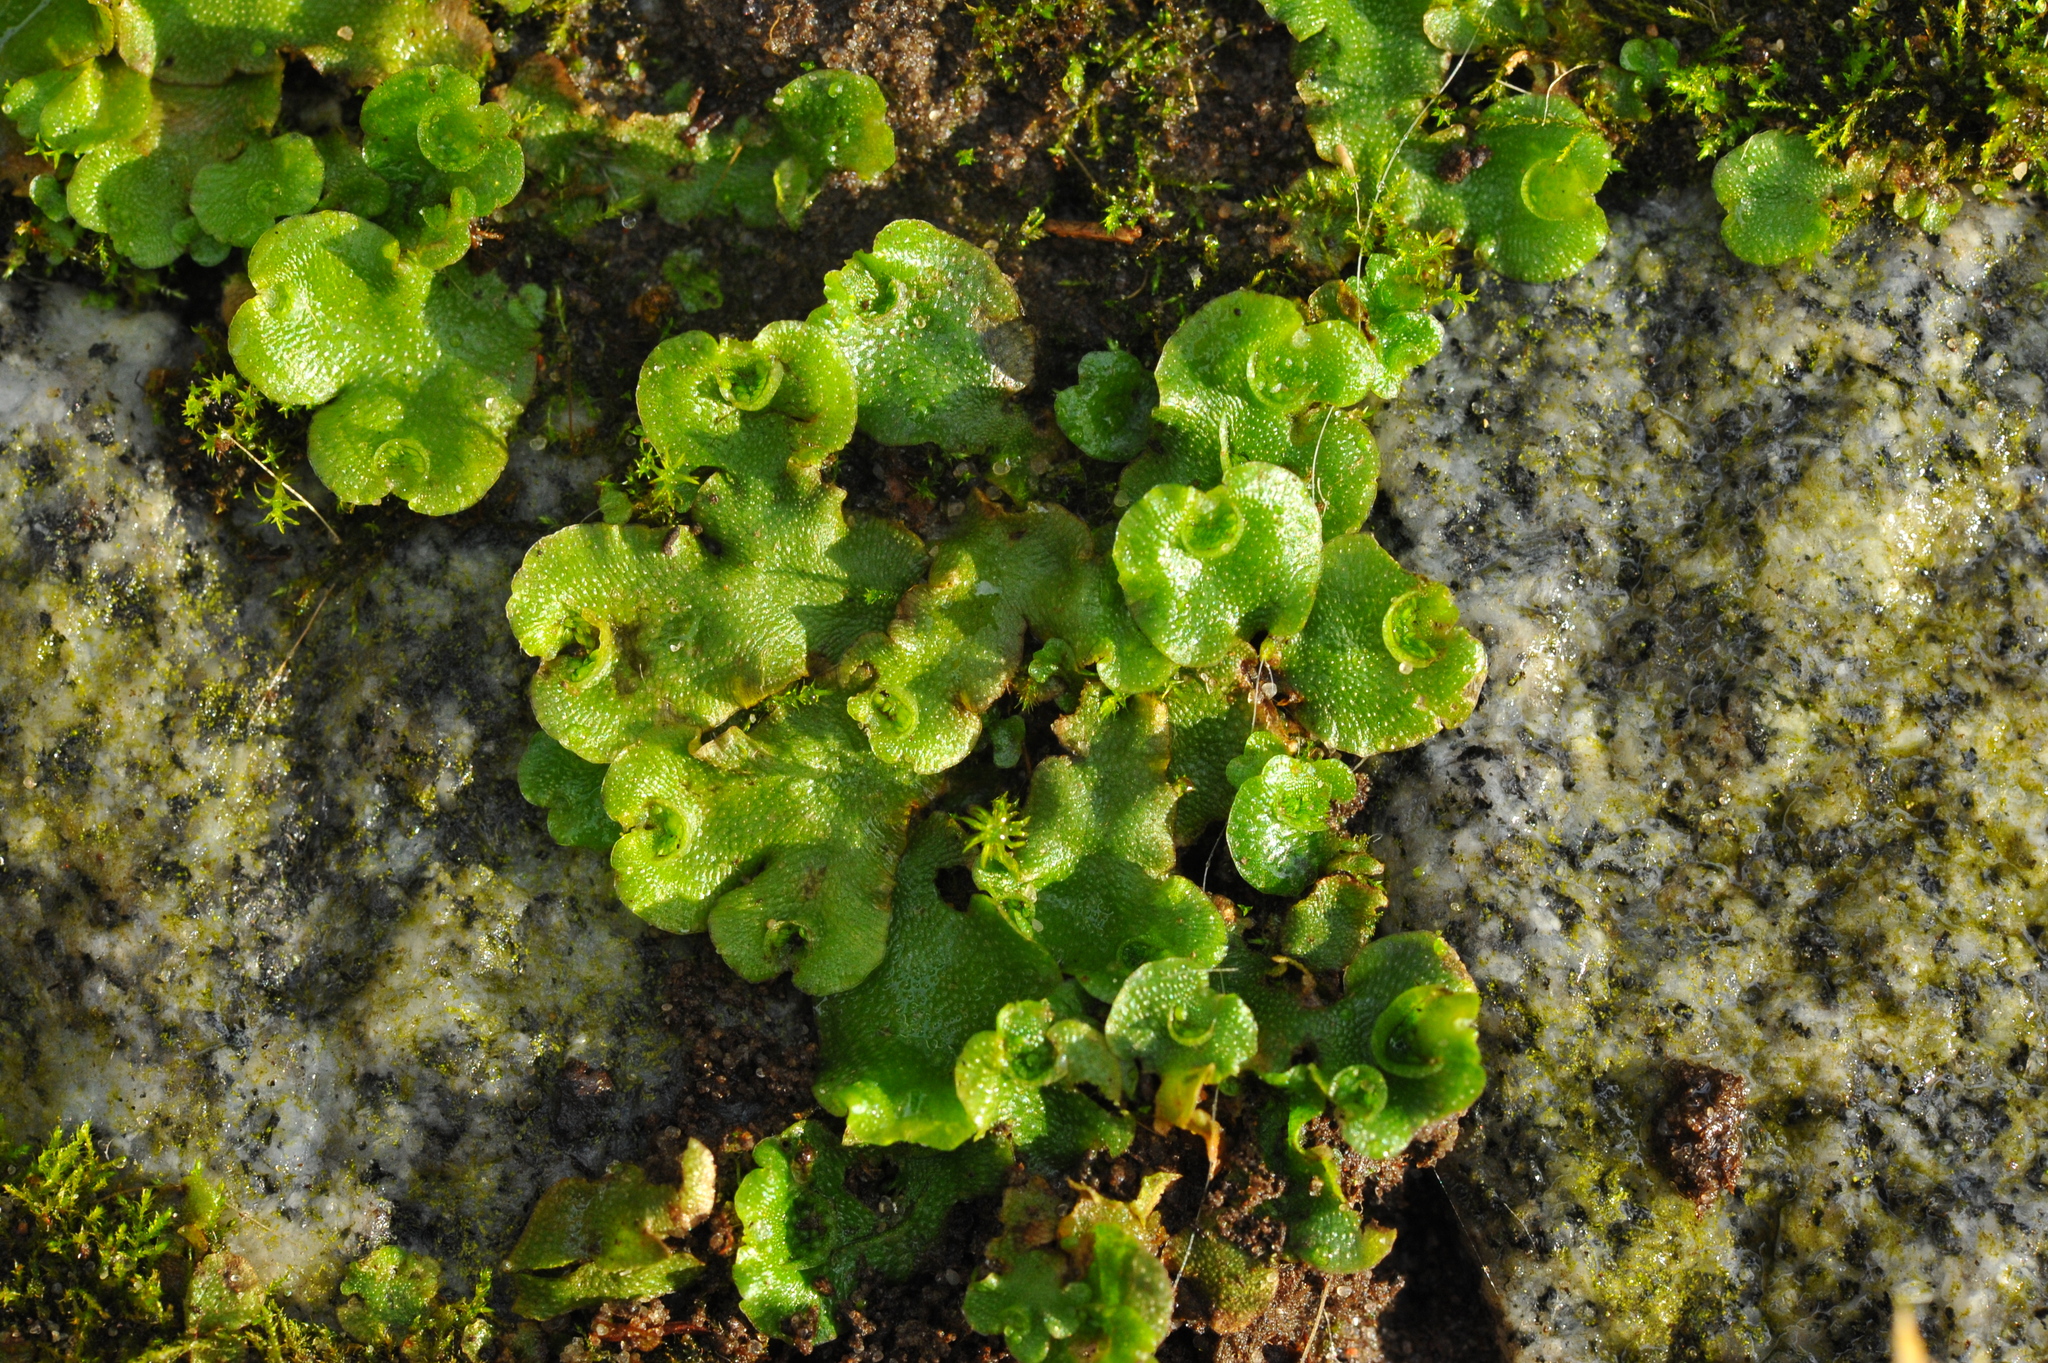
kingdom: Plantae
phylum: Marchantiophyta
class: Marchantiopsida
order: Lunulariales
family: Lunulariaceae
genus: Lunularia
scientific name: Lunularia cruciata
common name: Crescent-cup liverwort
